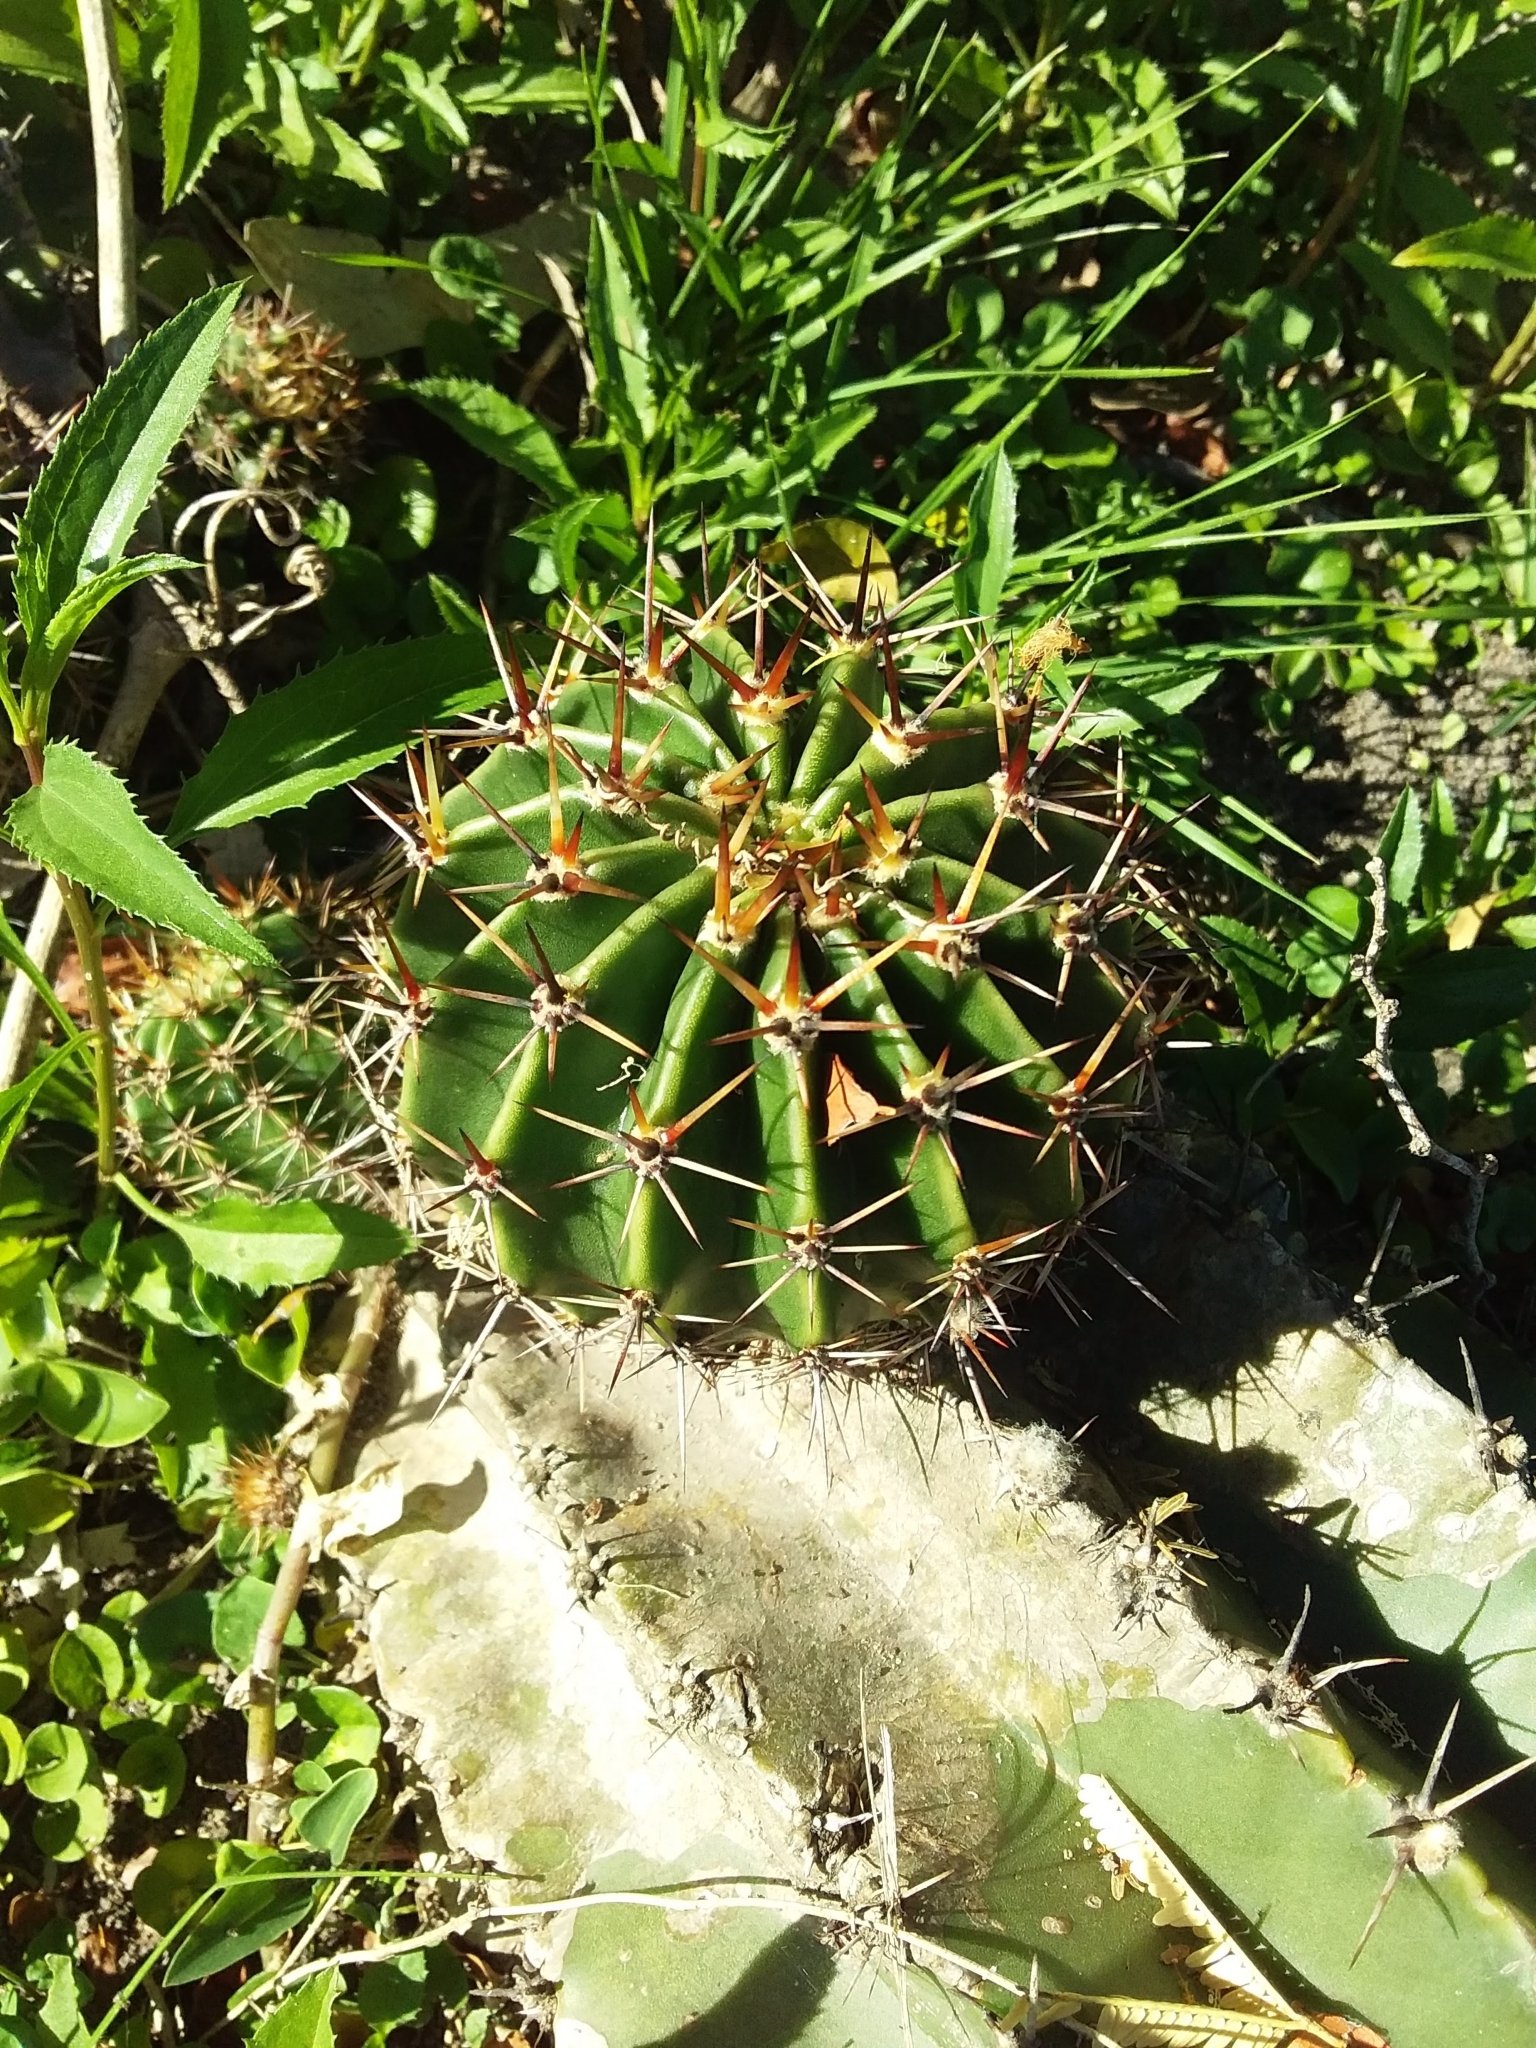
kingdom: Plantae
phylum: Tracheophyta
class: Magnoliopsida
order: Caryophyllales
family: Cactaceae
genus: Echinopsis
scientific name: Echinopsis oxygona
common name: Red easter-lily cactus
